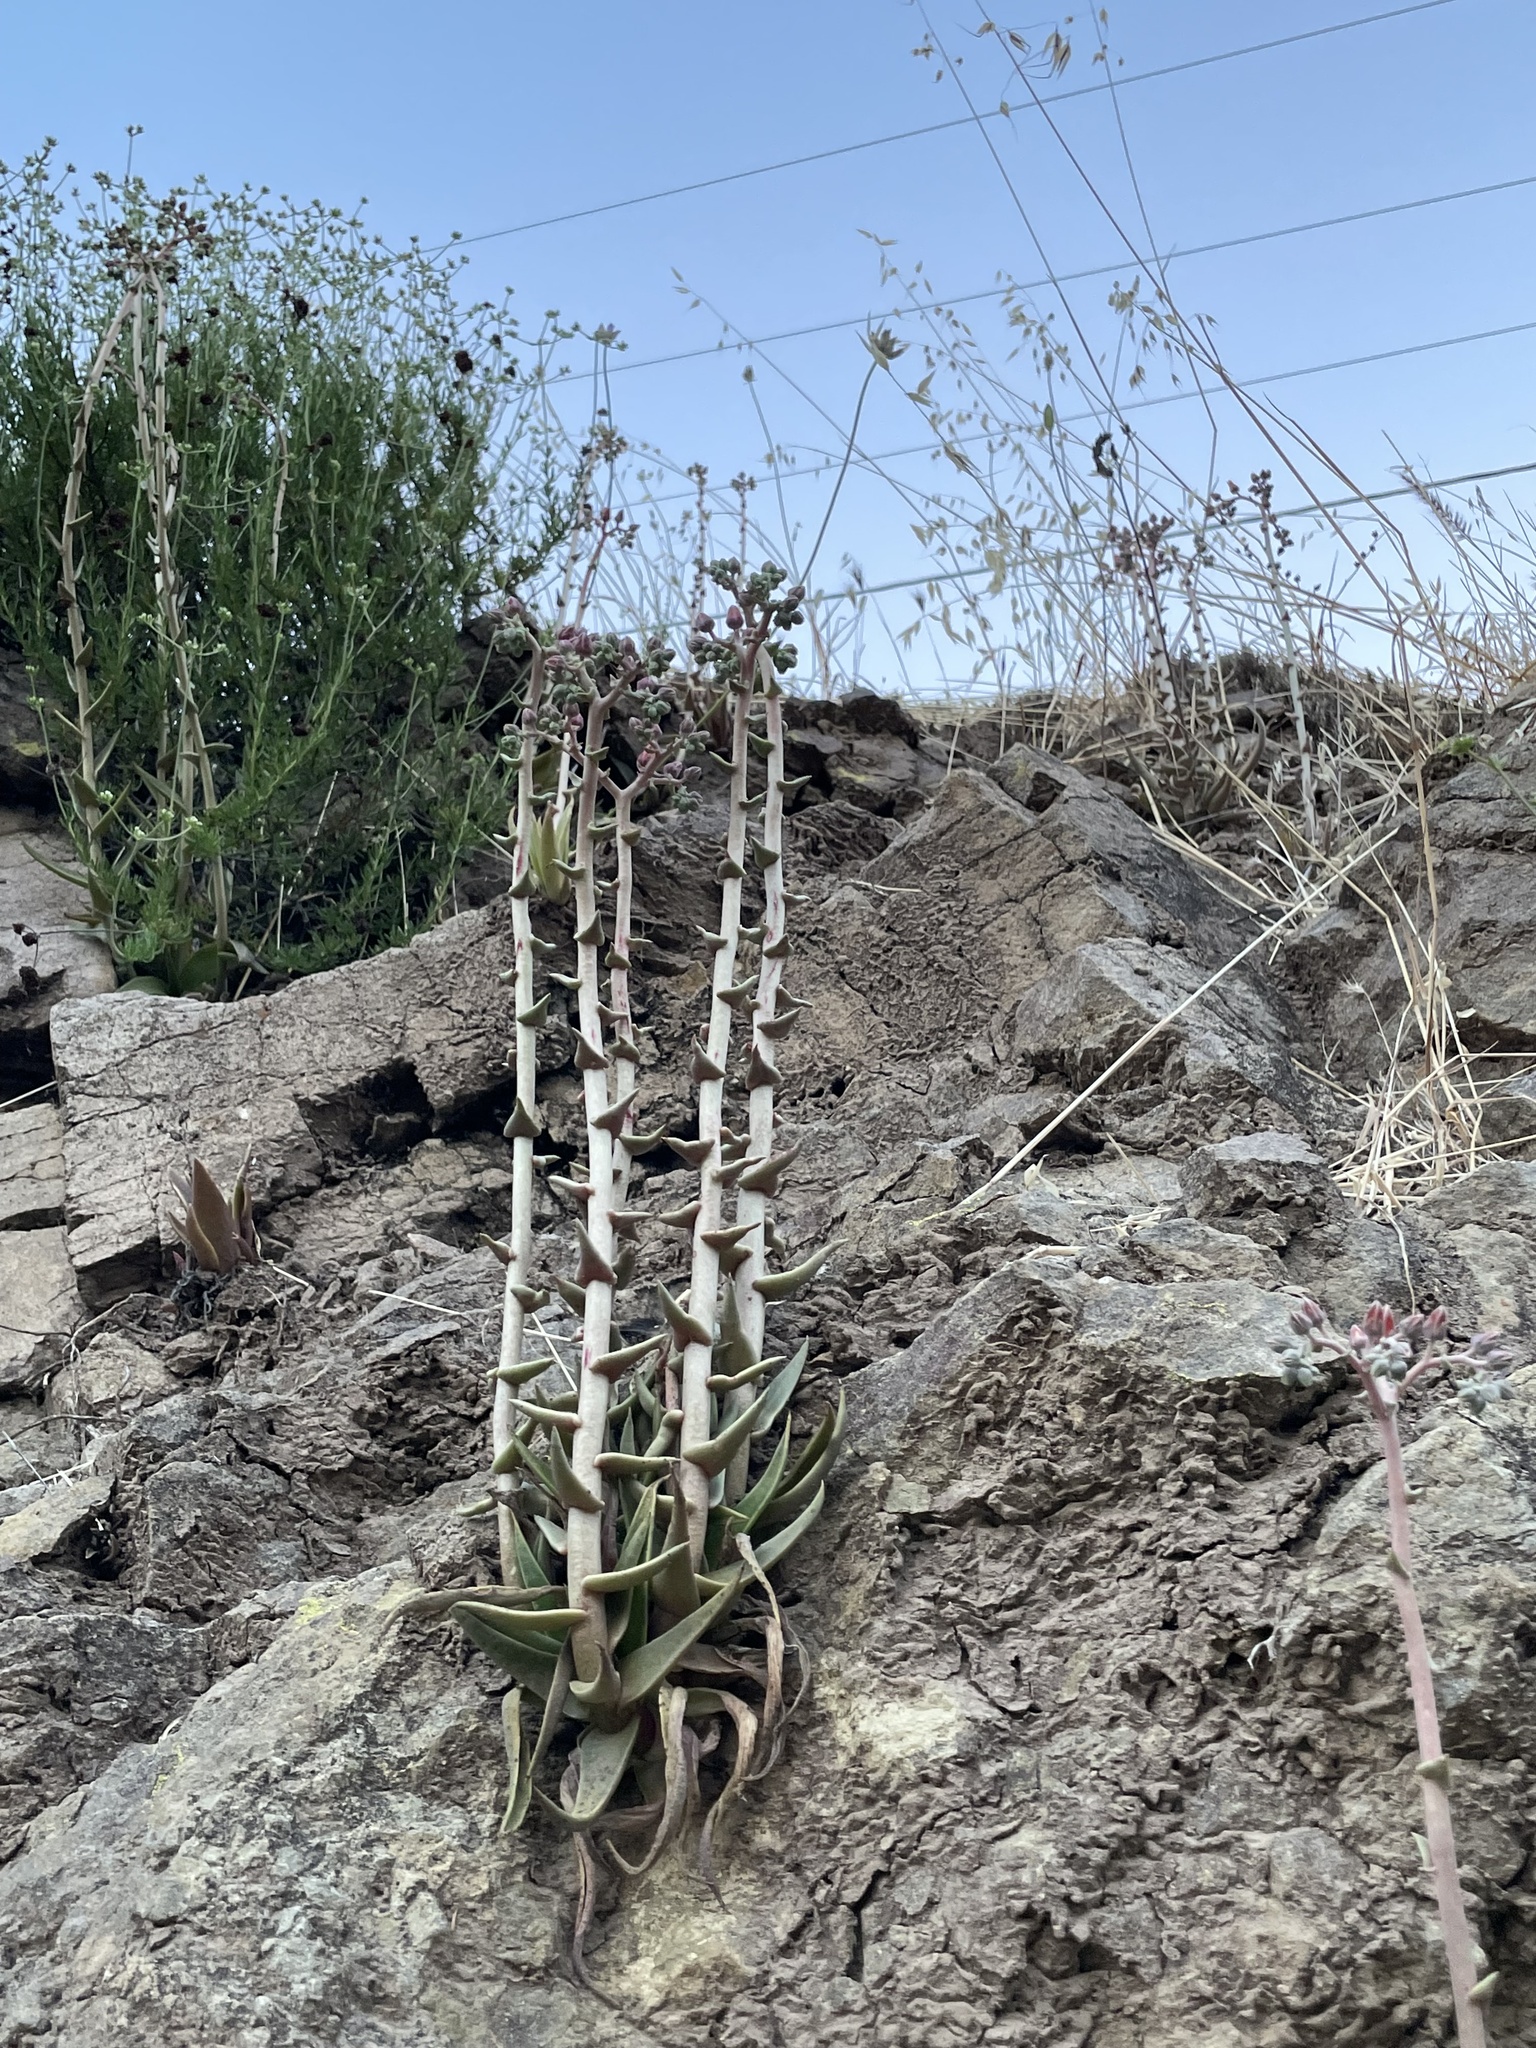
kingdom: Plantae
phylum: Tracheophyta
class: Magnoliopsida
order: Saxifragales
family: Crassulaceae
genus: Dudleya
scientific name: Dudleya lanceolata
